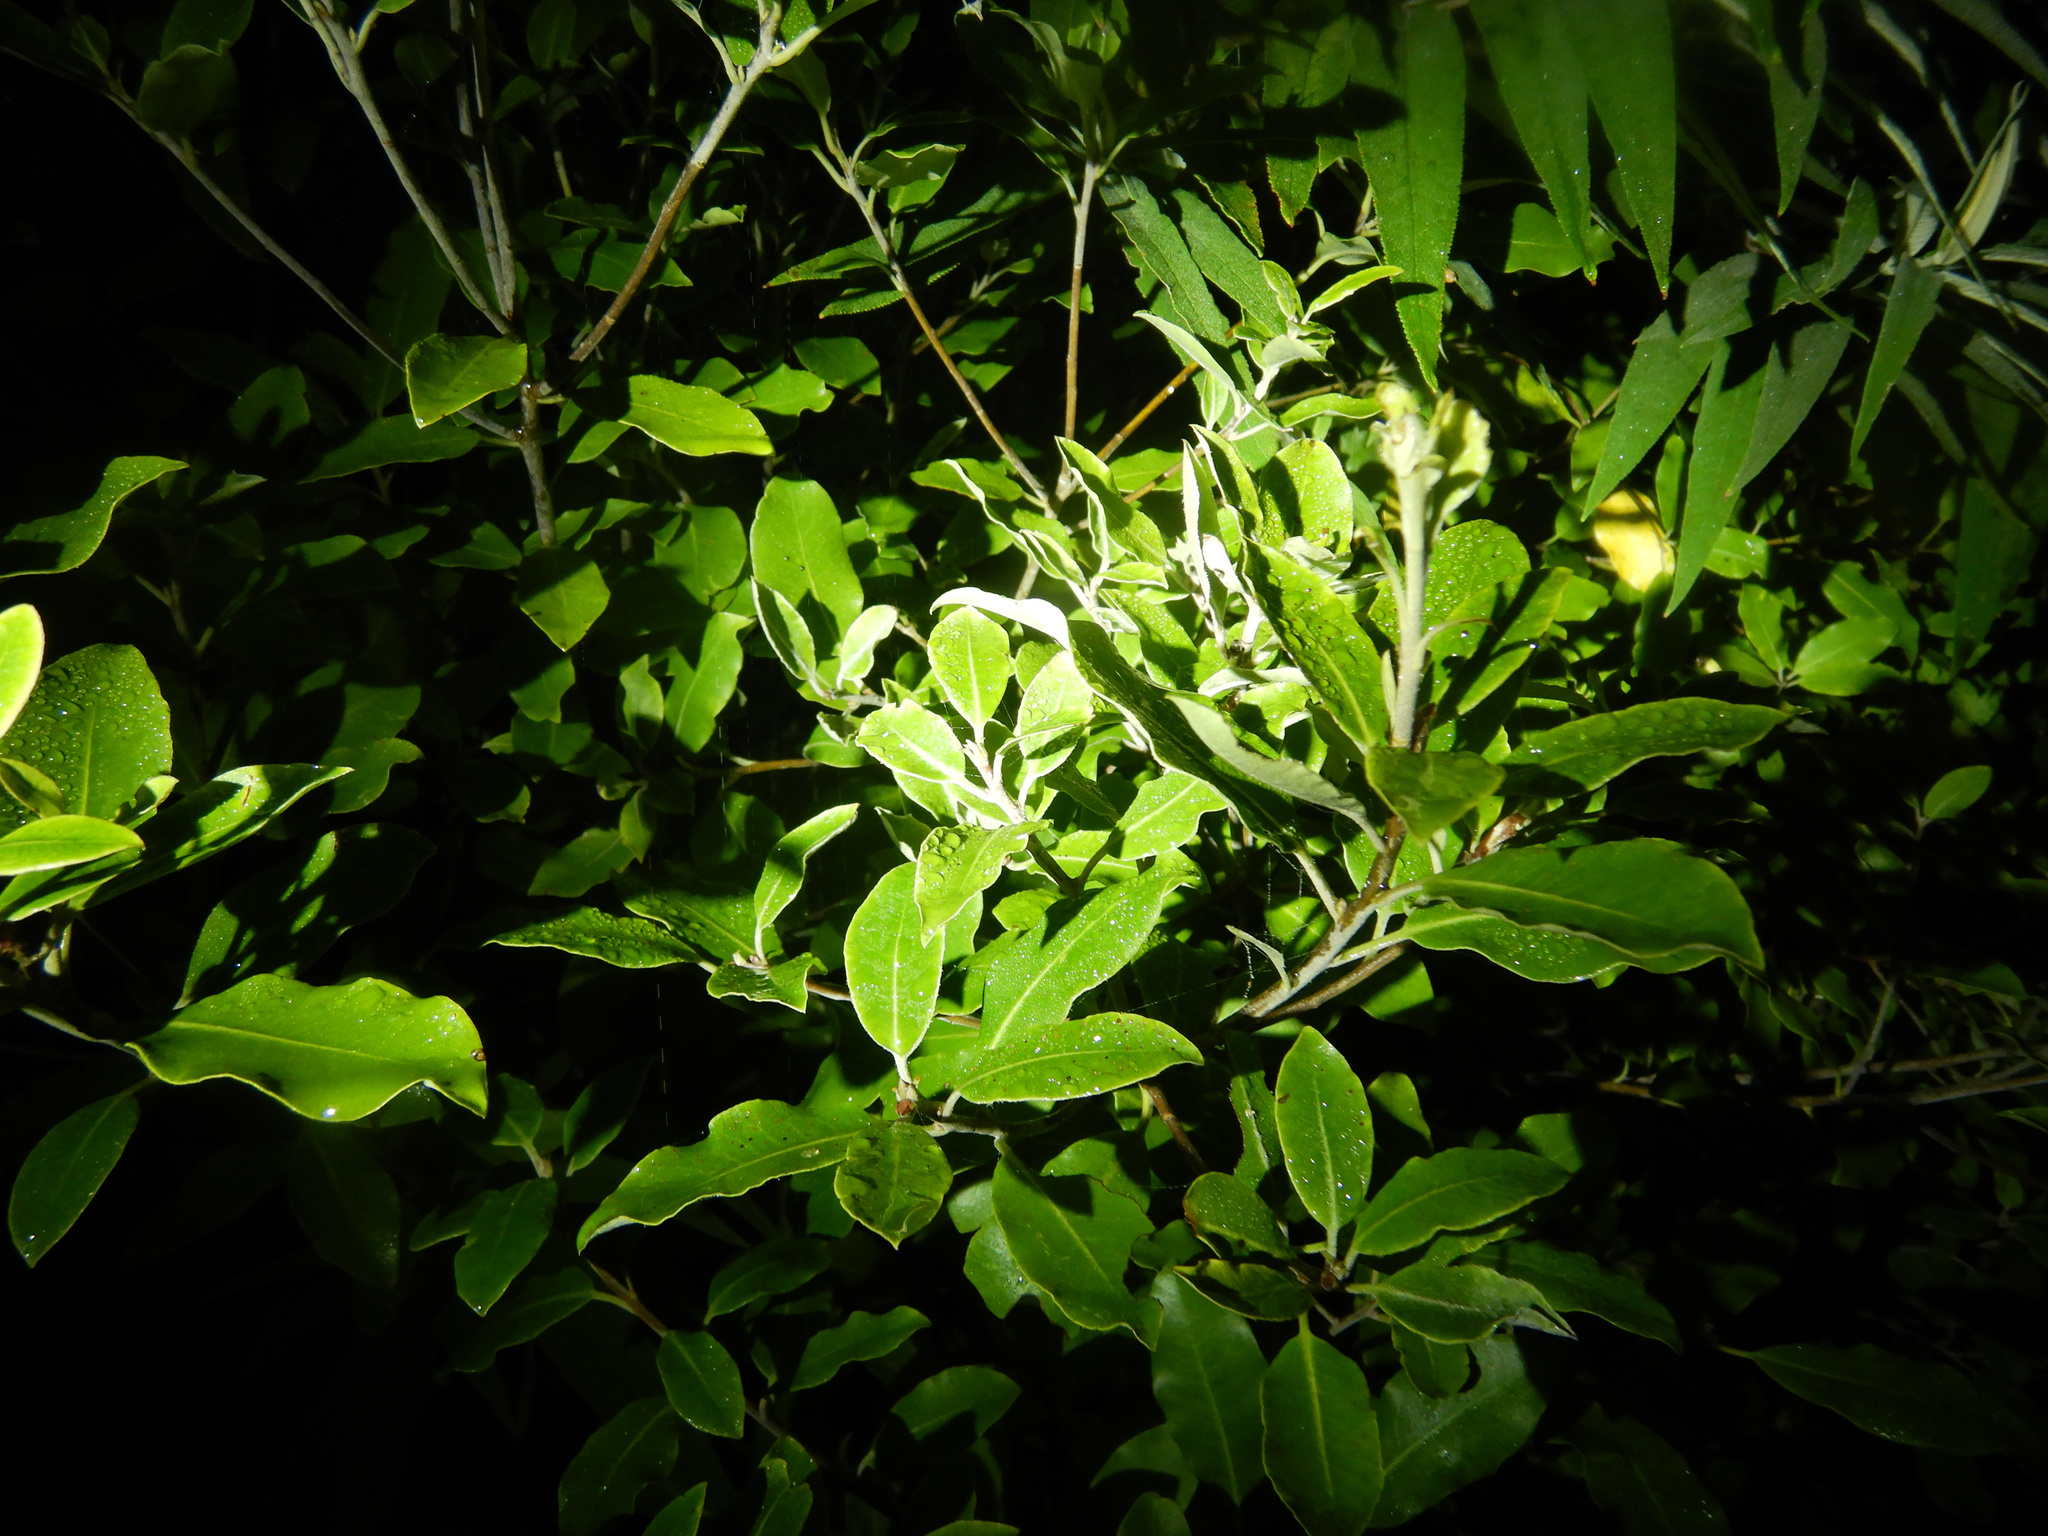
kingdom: Plantae
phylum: Tracheophyta
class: Magnoliopsida
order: Apiales
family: Pittosporaceae
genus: Pittosporum
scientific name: Pittosporum ralphii
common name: Ralph's desertwillow
